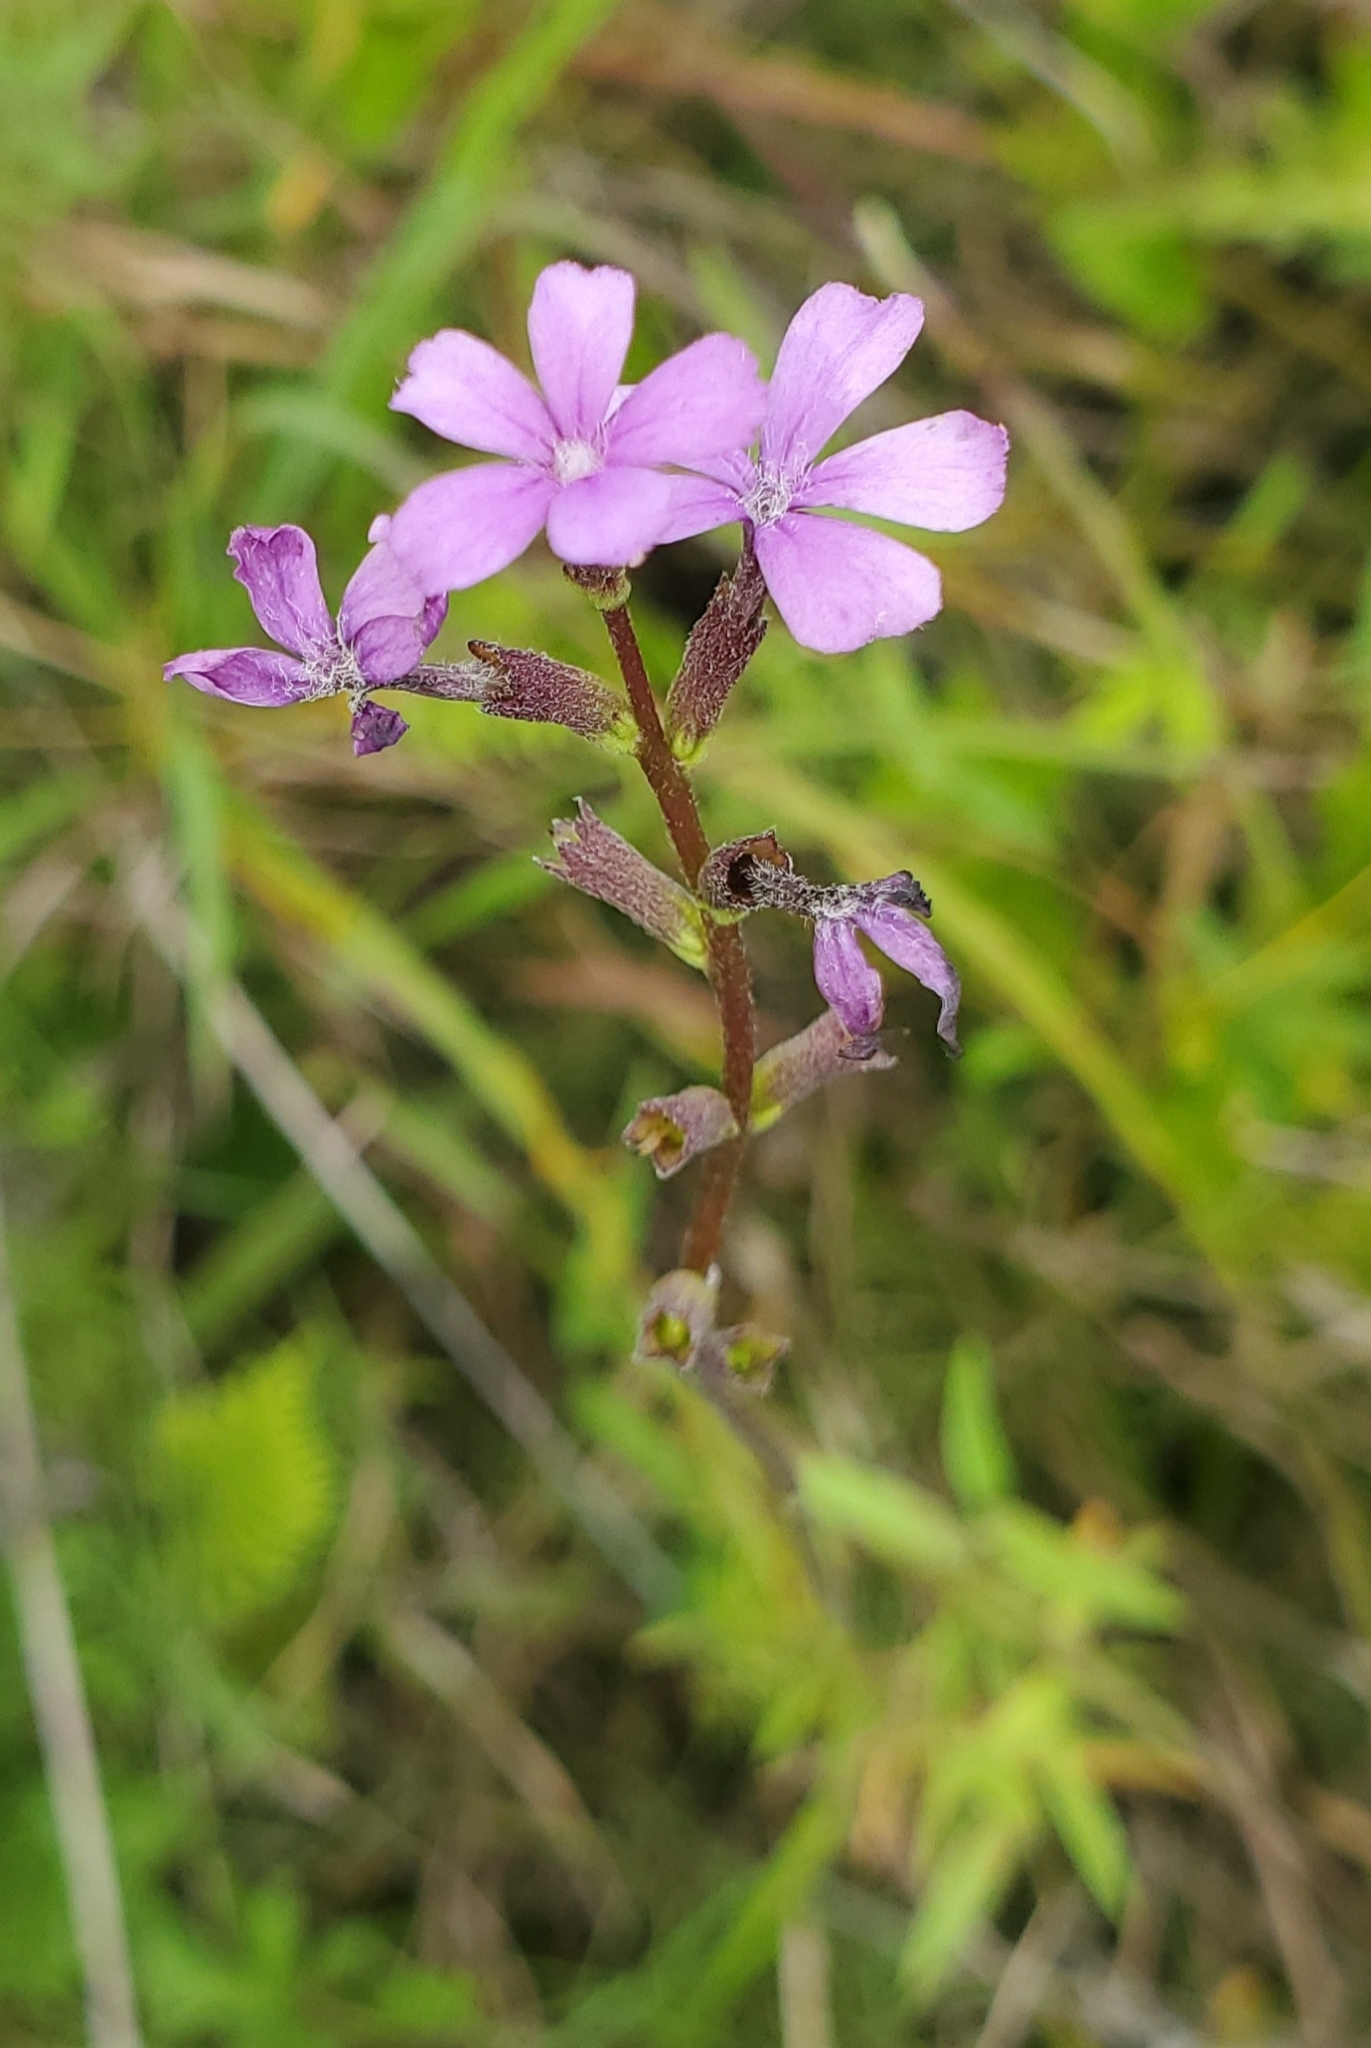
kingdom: Plantae
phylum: Tracheophyta
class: Magnoliopsida
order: Lamiales
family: Orobanchaceae
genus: Buchnera
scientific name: Buchnera floridana
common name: Florida bluehearts
